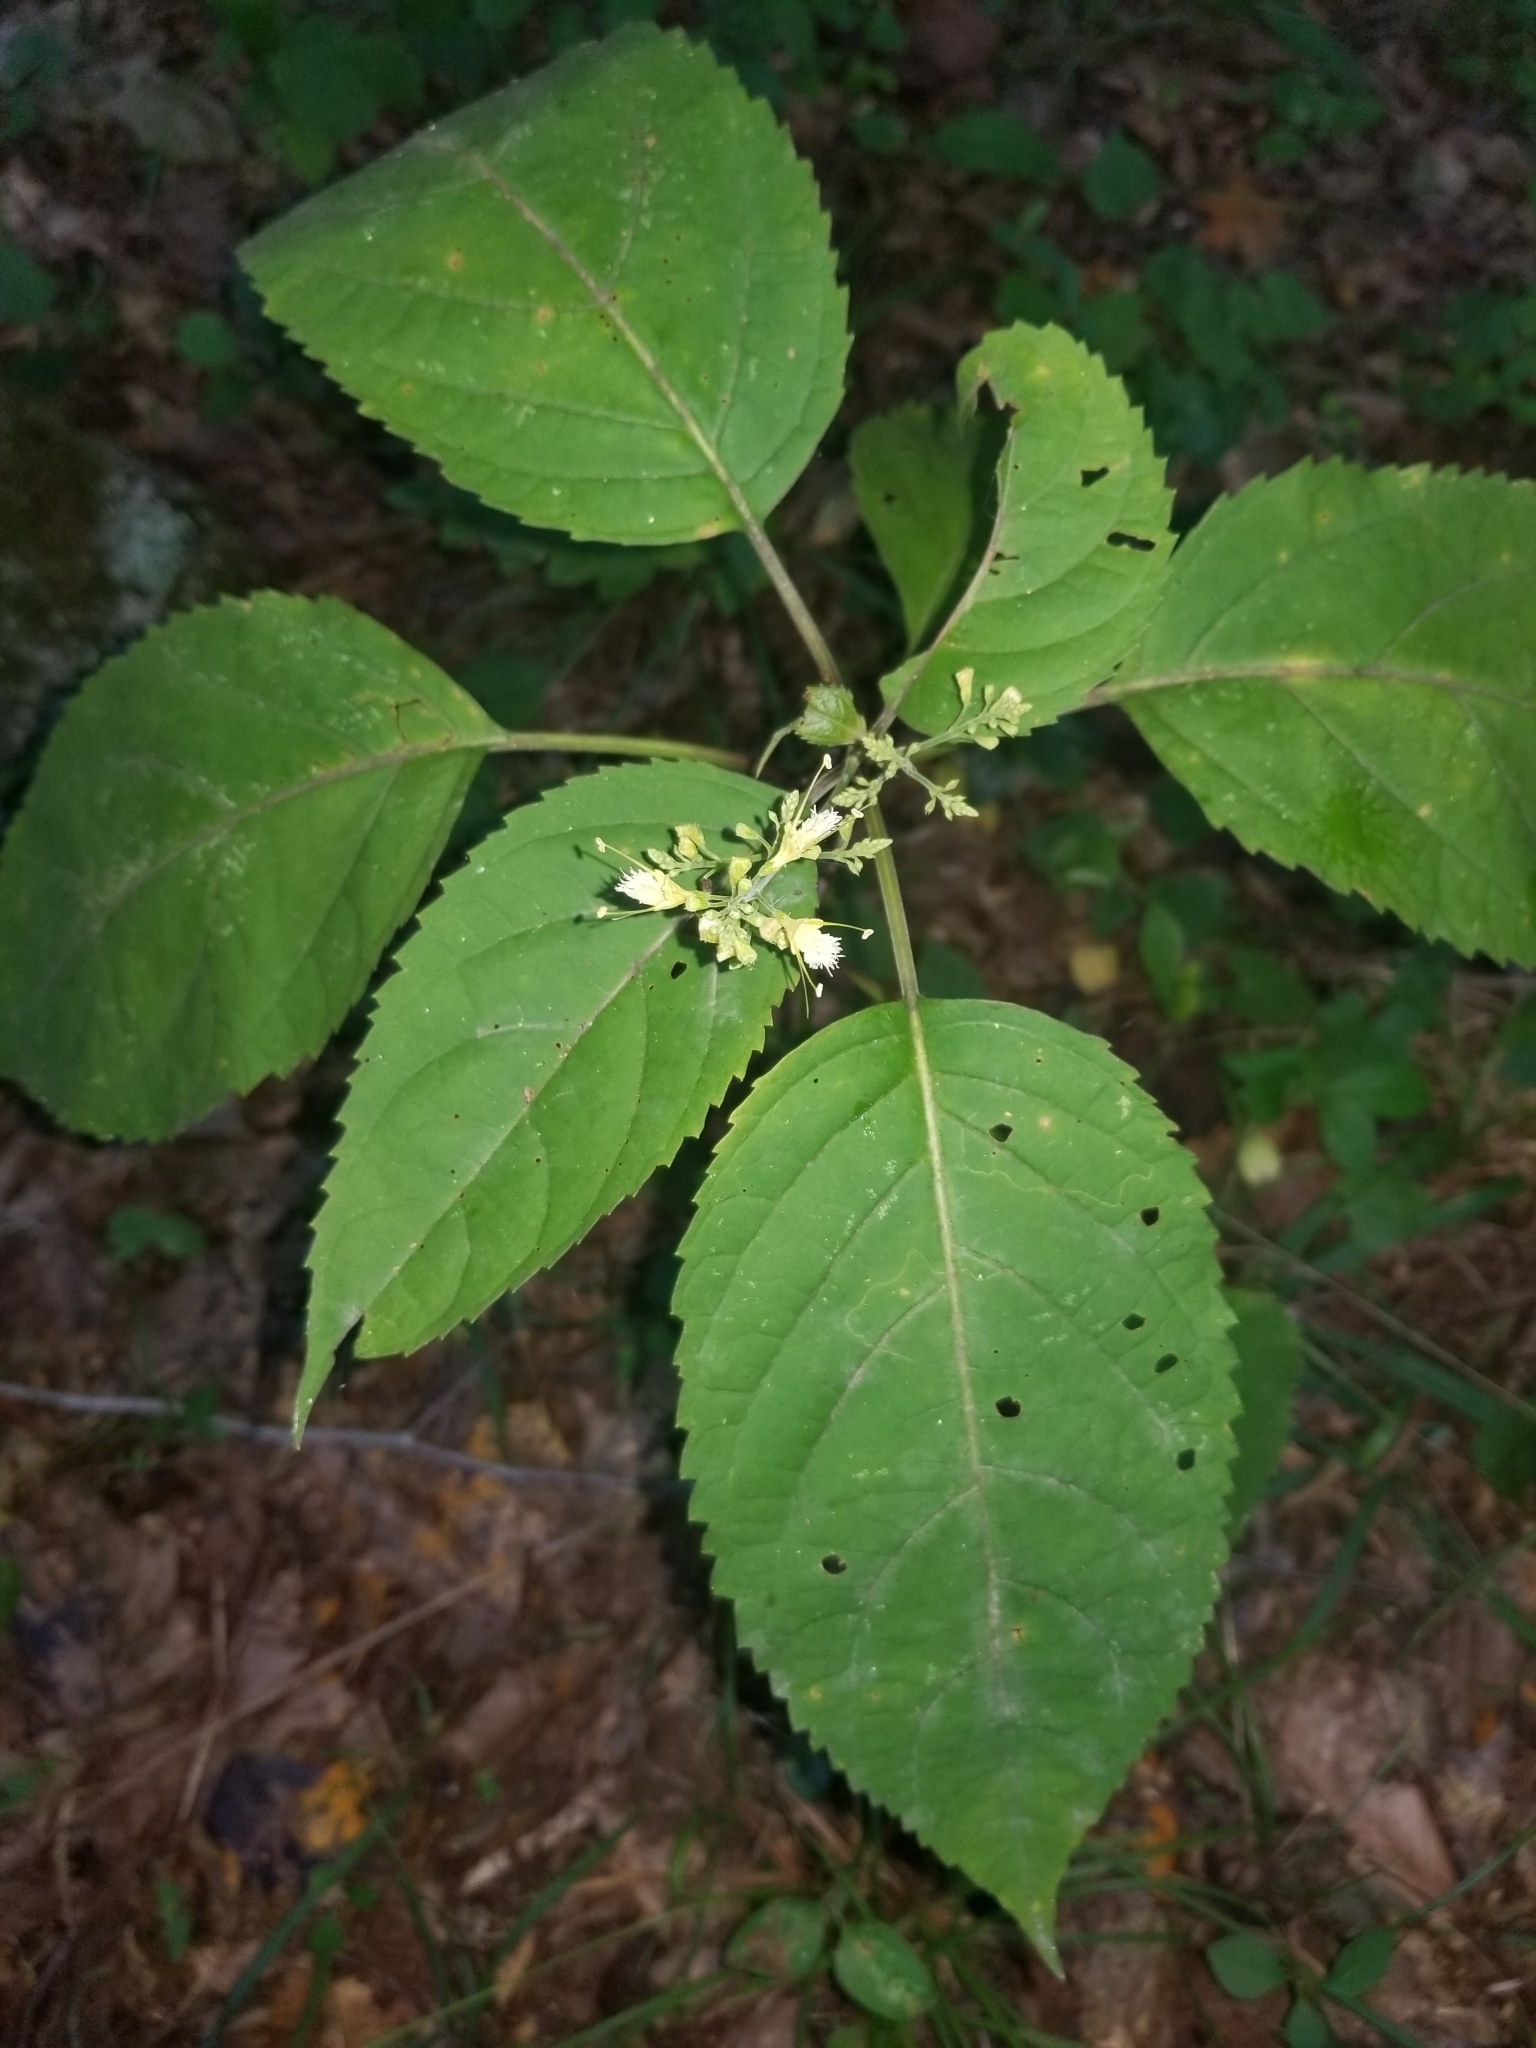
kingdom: Plantae
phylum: Tracheophyta
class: Magnoliopsida
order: Lamiales
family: Lamiaceae
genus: Collinsonia
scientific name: Collinsonia canadensis
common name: Northern horsebalm
